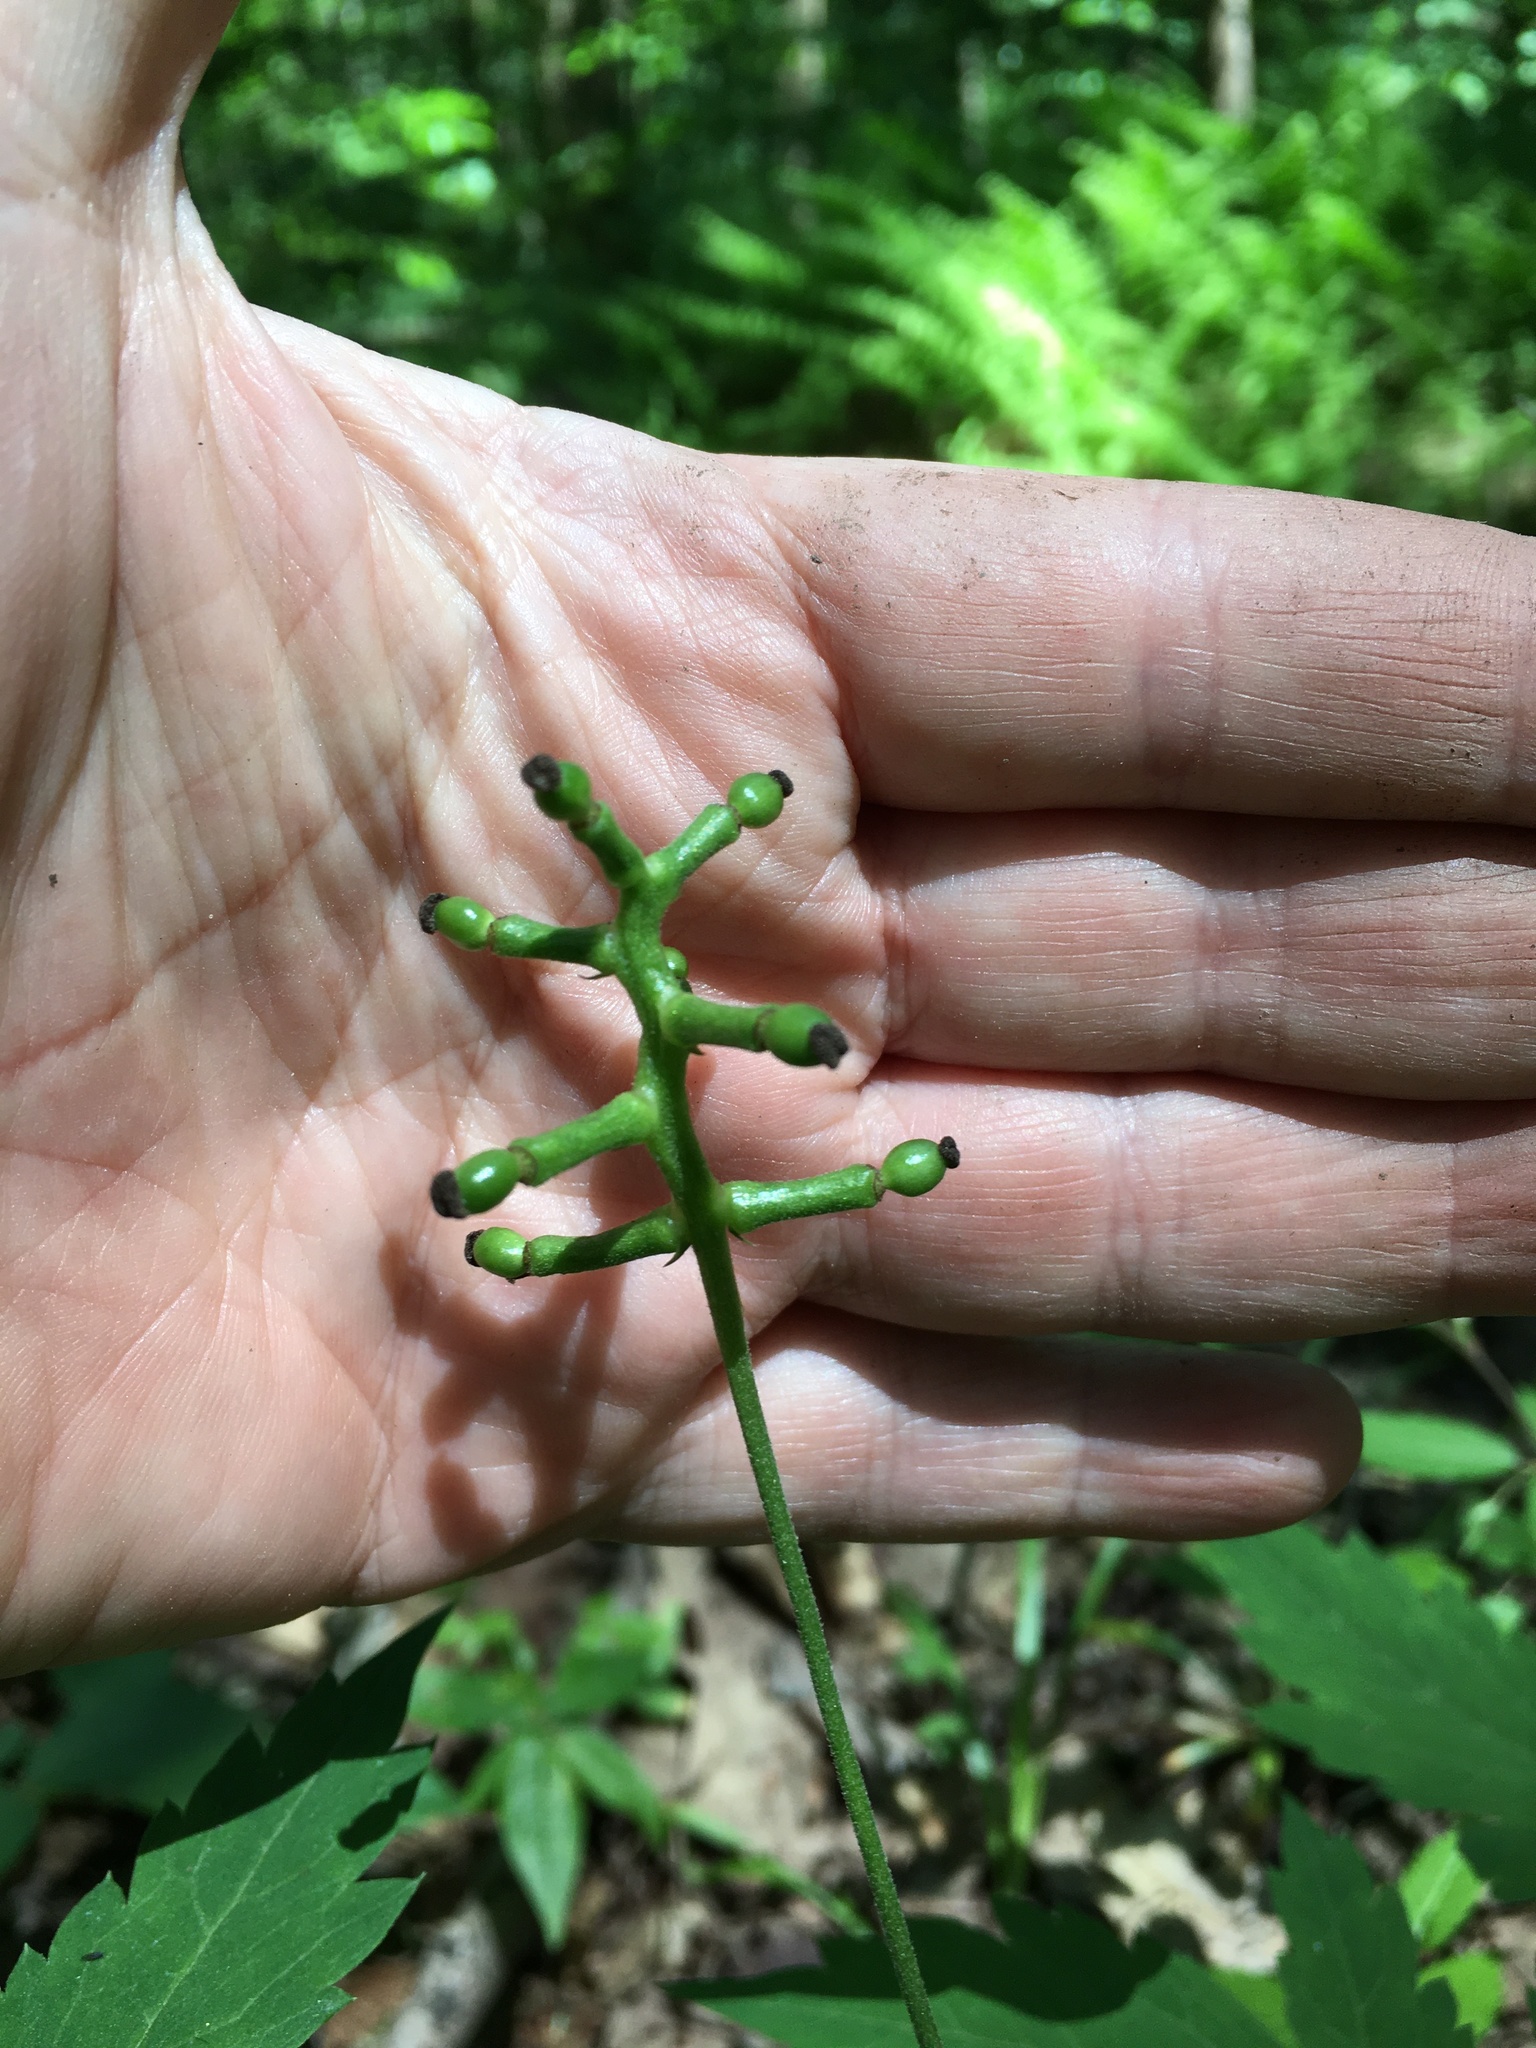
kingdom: Plantae
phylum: Tracheophyta
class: Magnoliopsida
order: Ranunculales
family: Ranunculaceae
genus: Actaea
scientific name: Actaea pachypoda
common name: Doll's-eyes
